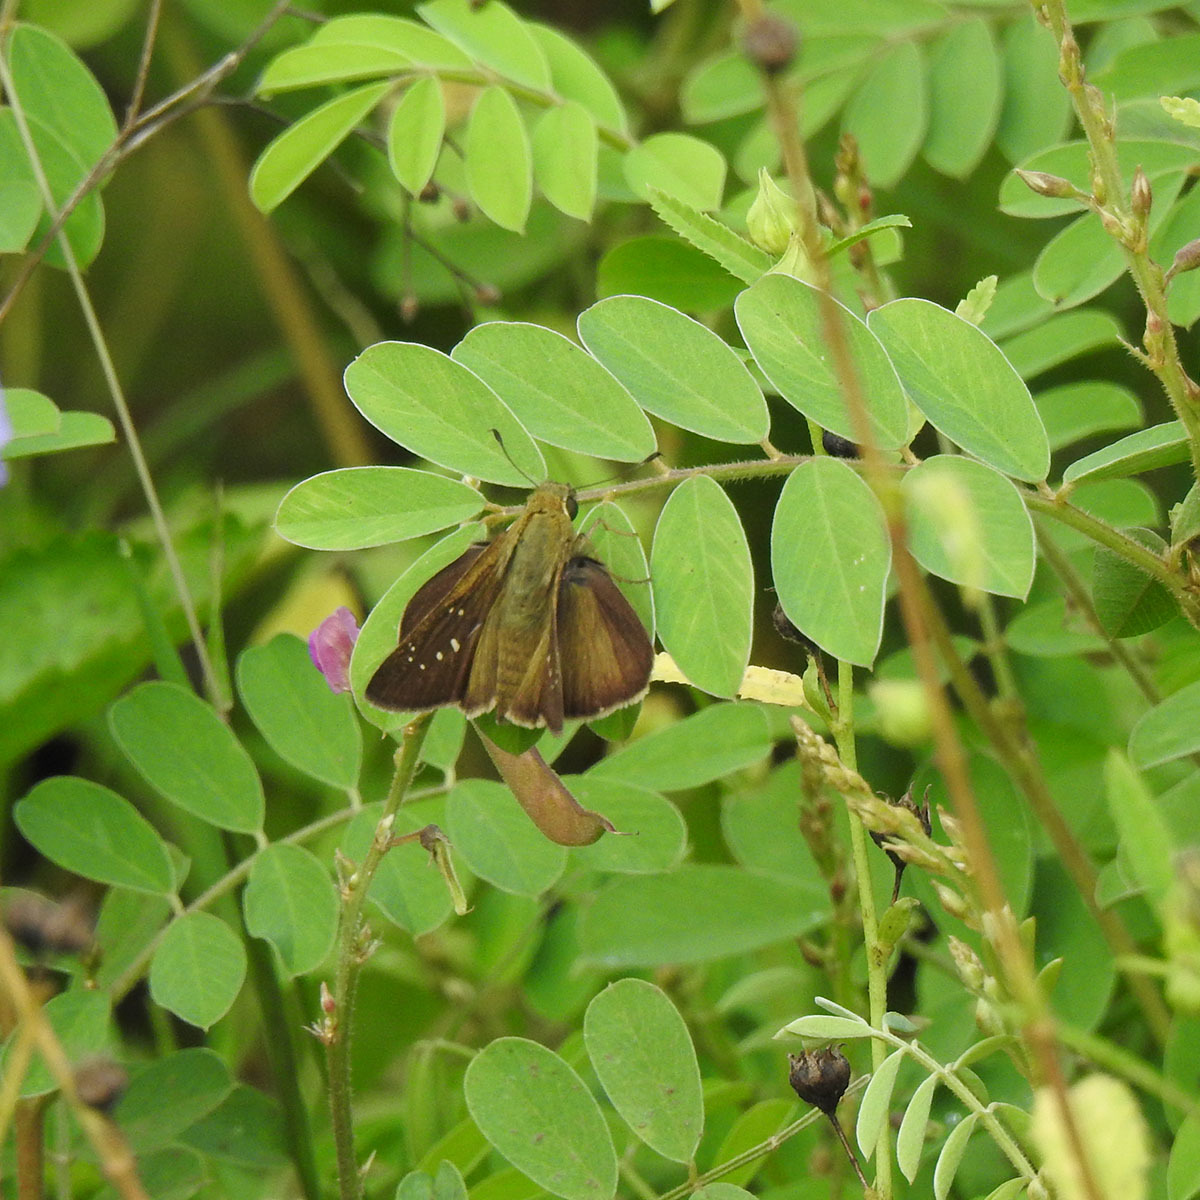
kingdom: Animalia
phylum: Arthropoda
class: Insecta
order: Lepidoptera
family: Hesperiidae
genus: Polytremis
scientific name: Polytremis lubricans
